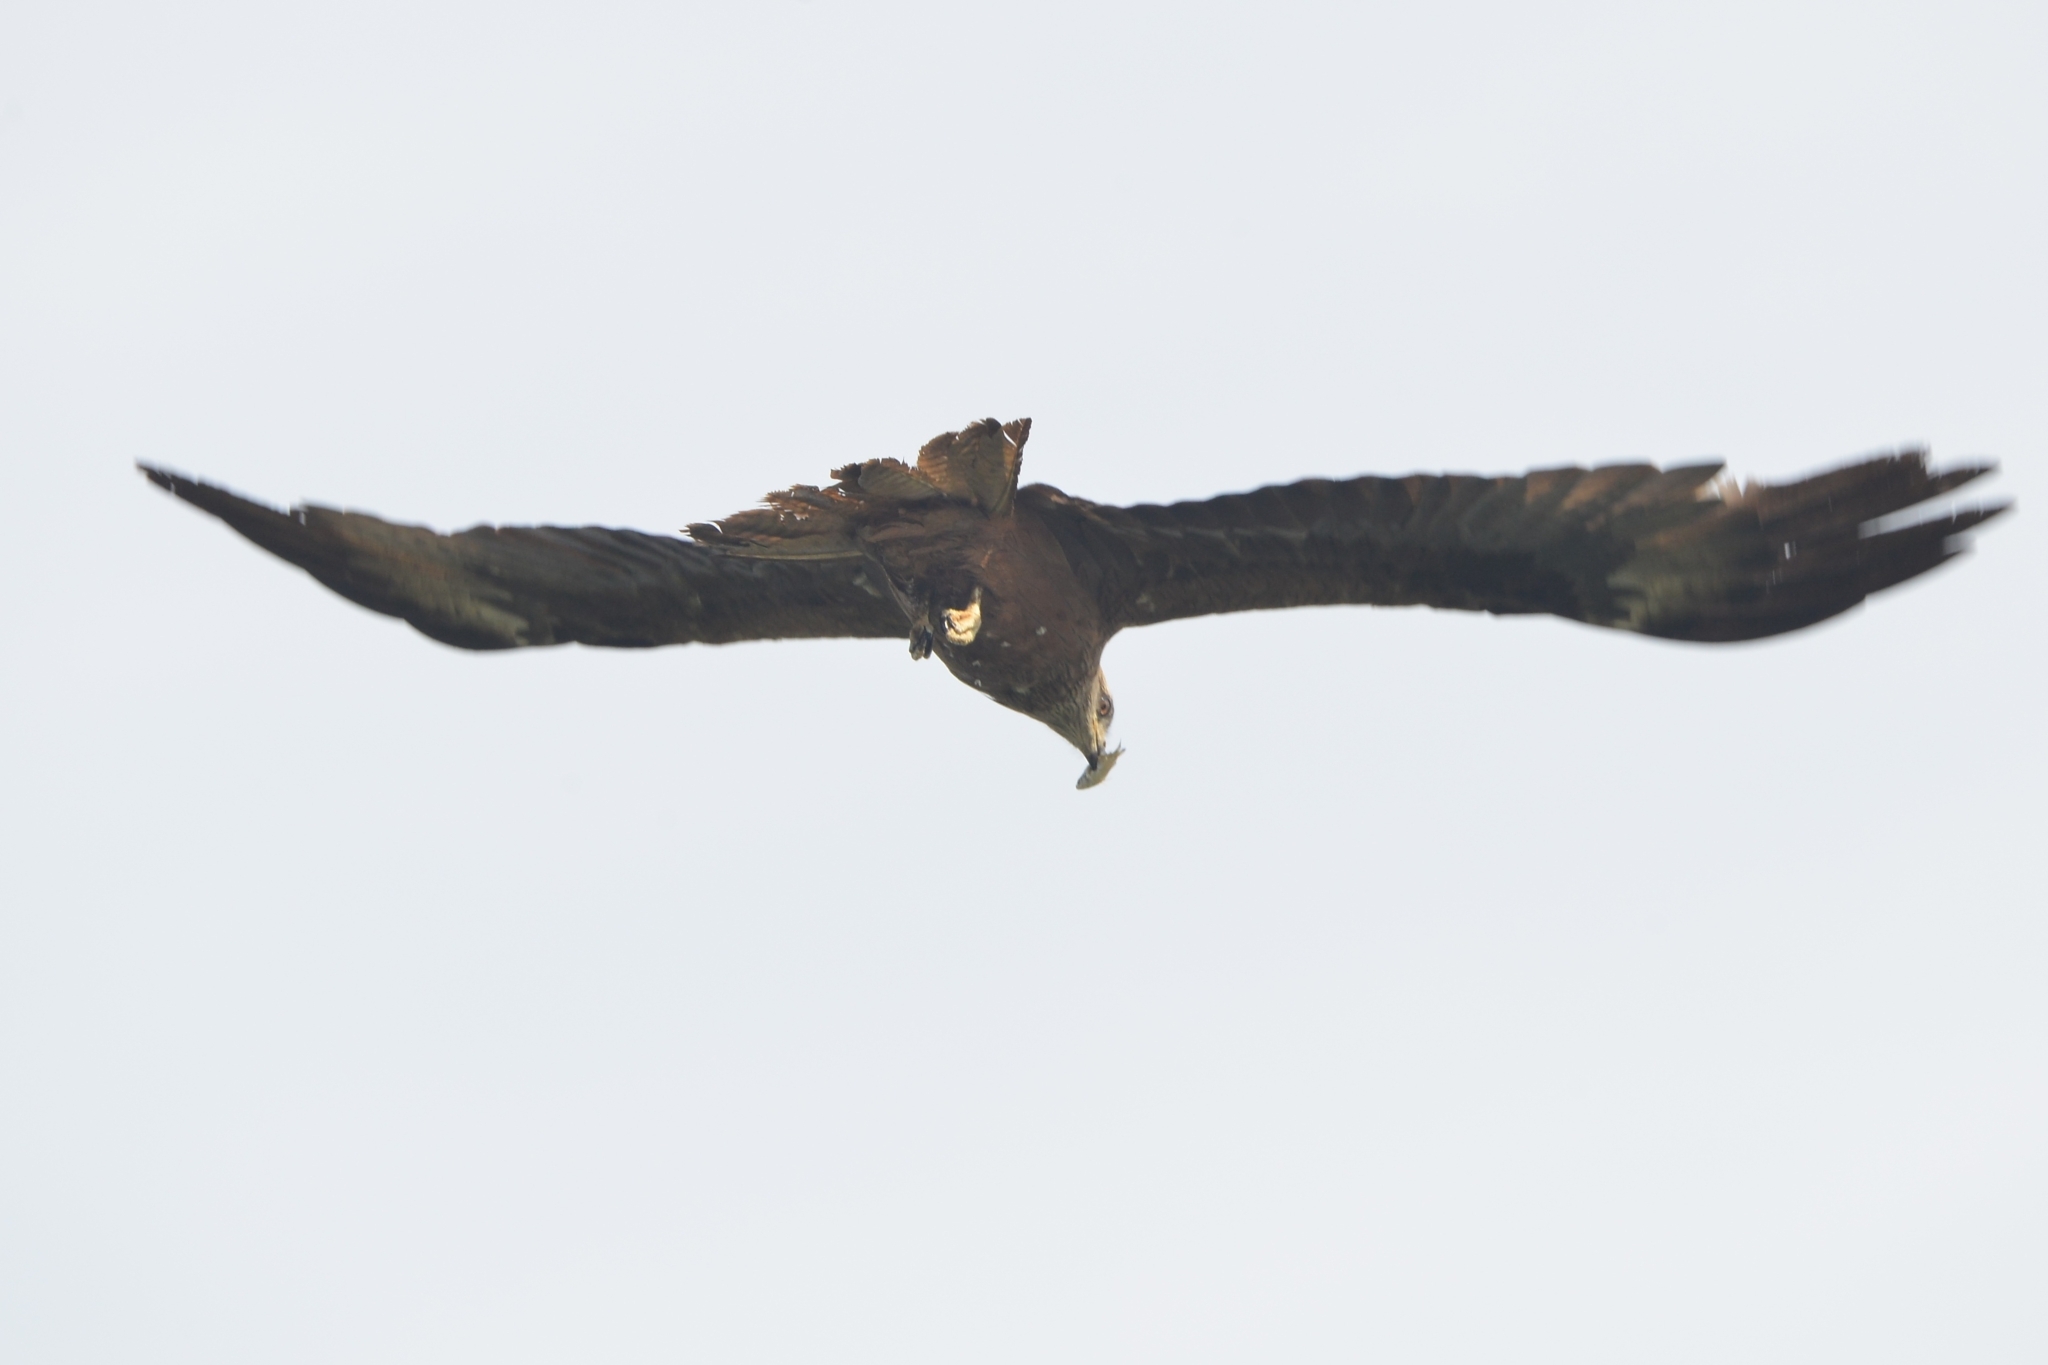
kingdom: Animalia
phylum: Chordata
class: Aves
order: Accipitriformes
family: Accipitridae
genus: Milvus
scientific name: Milvus migrans
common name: Black kite
